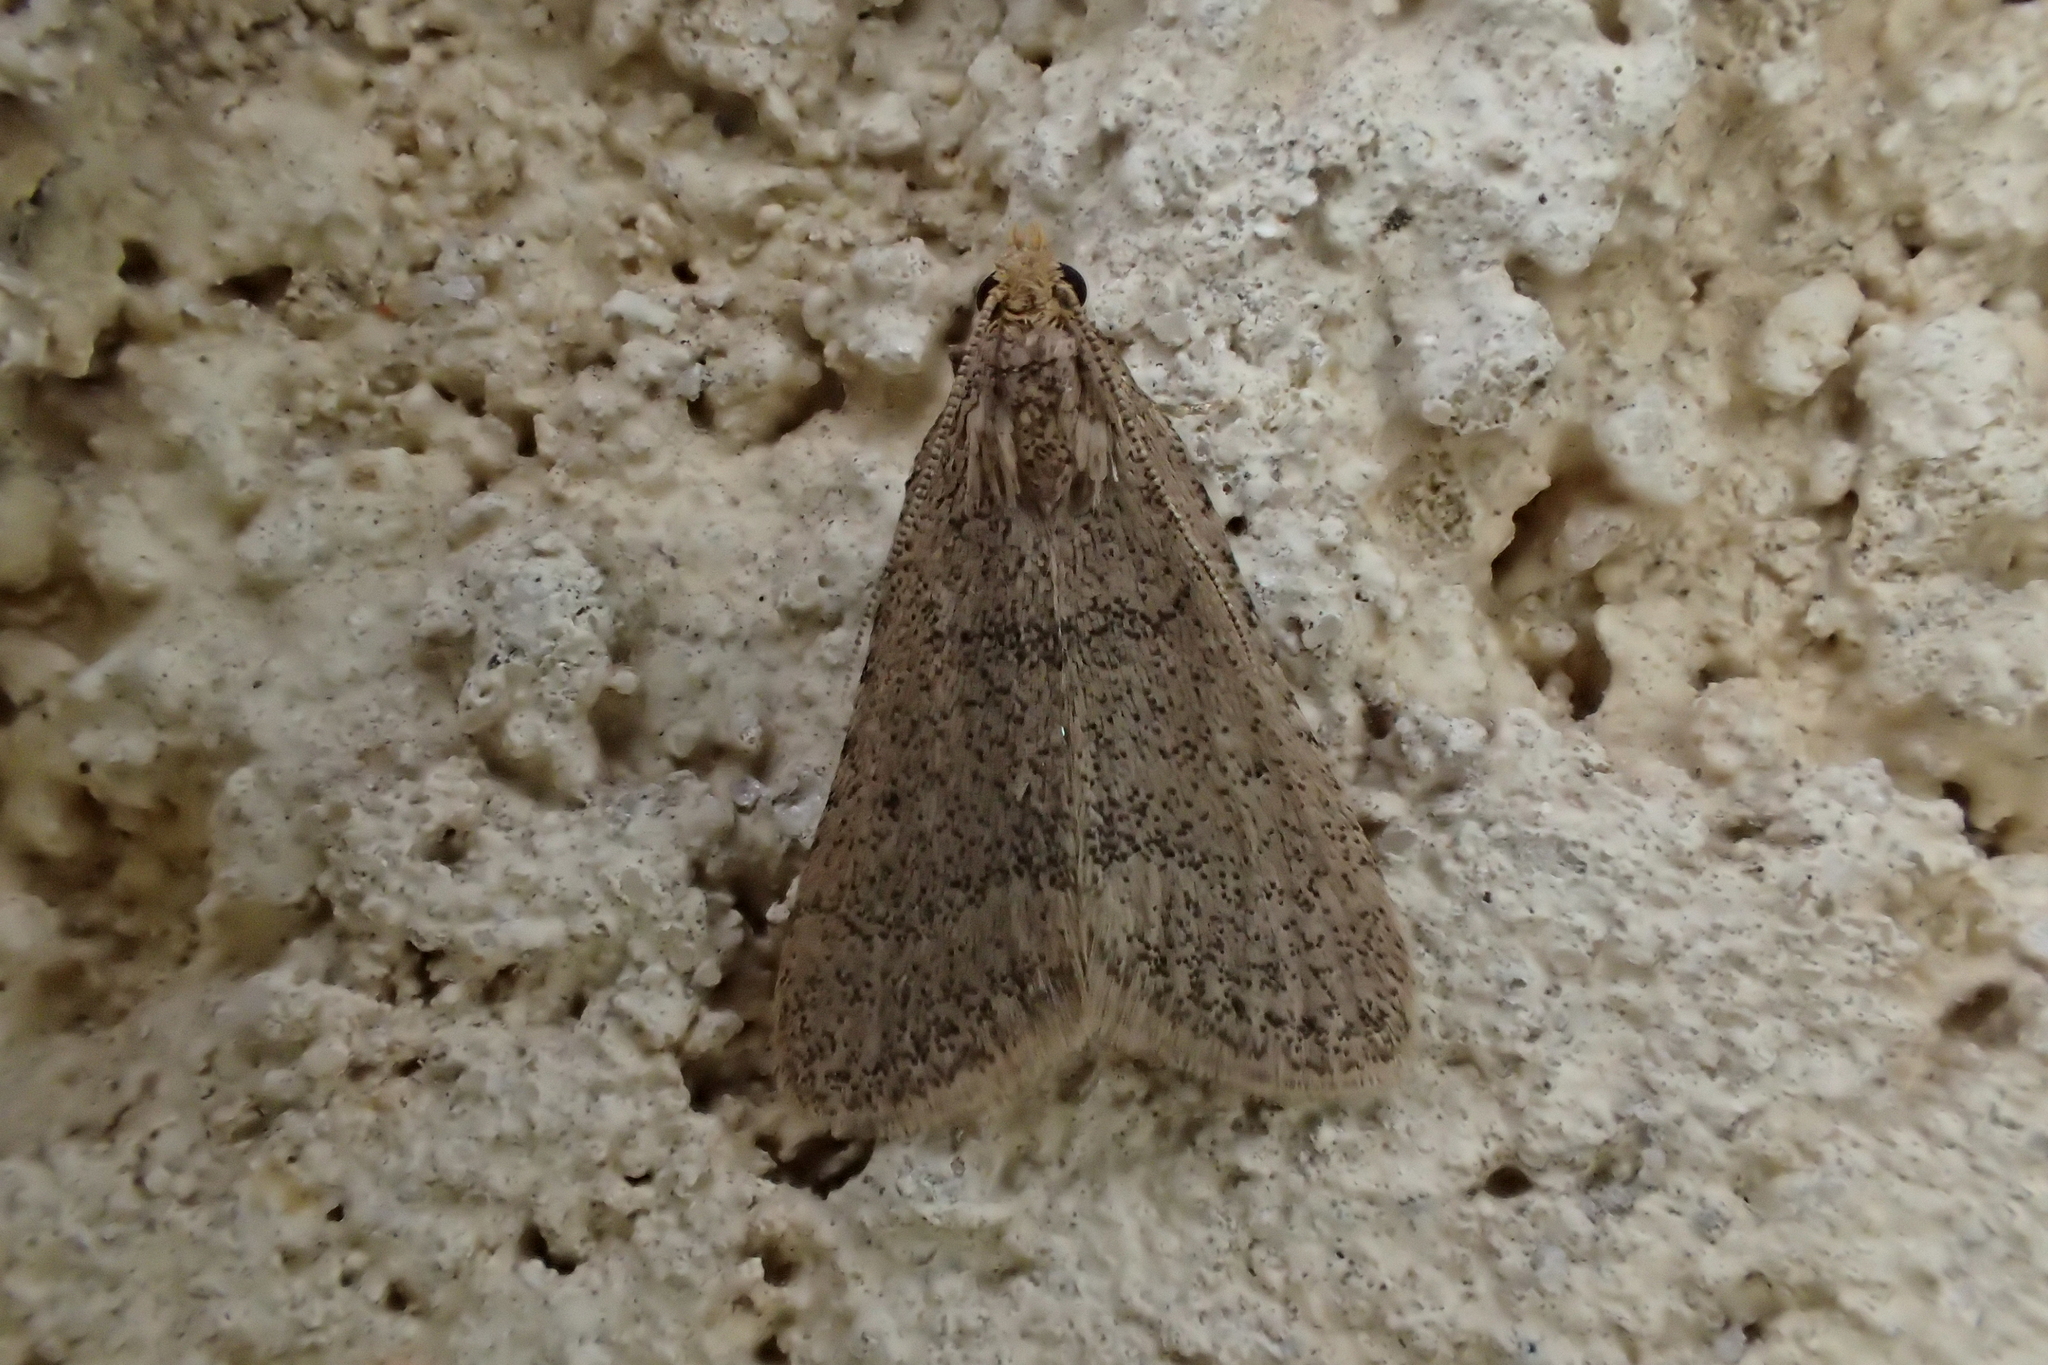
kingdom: Animalia
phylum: Arthropoda
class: Insecta
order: Lepidoptera
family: Pyralidae
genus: Bostra
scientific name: Bostra obsoletalis
